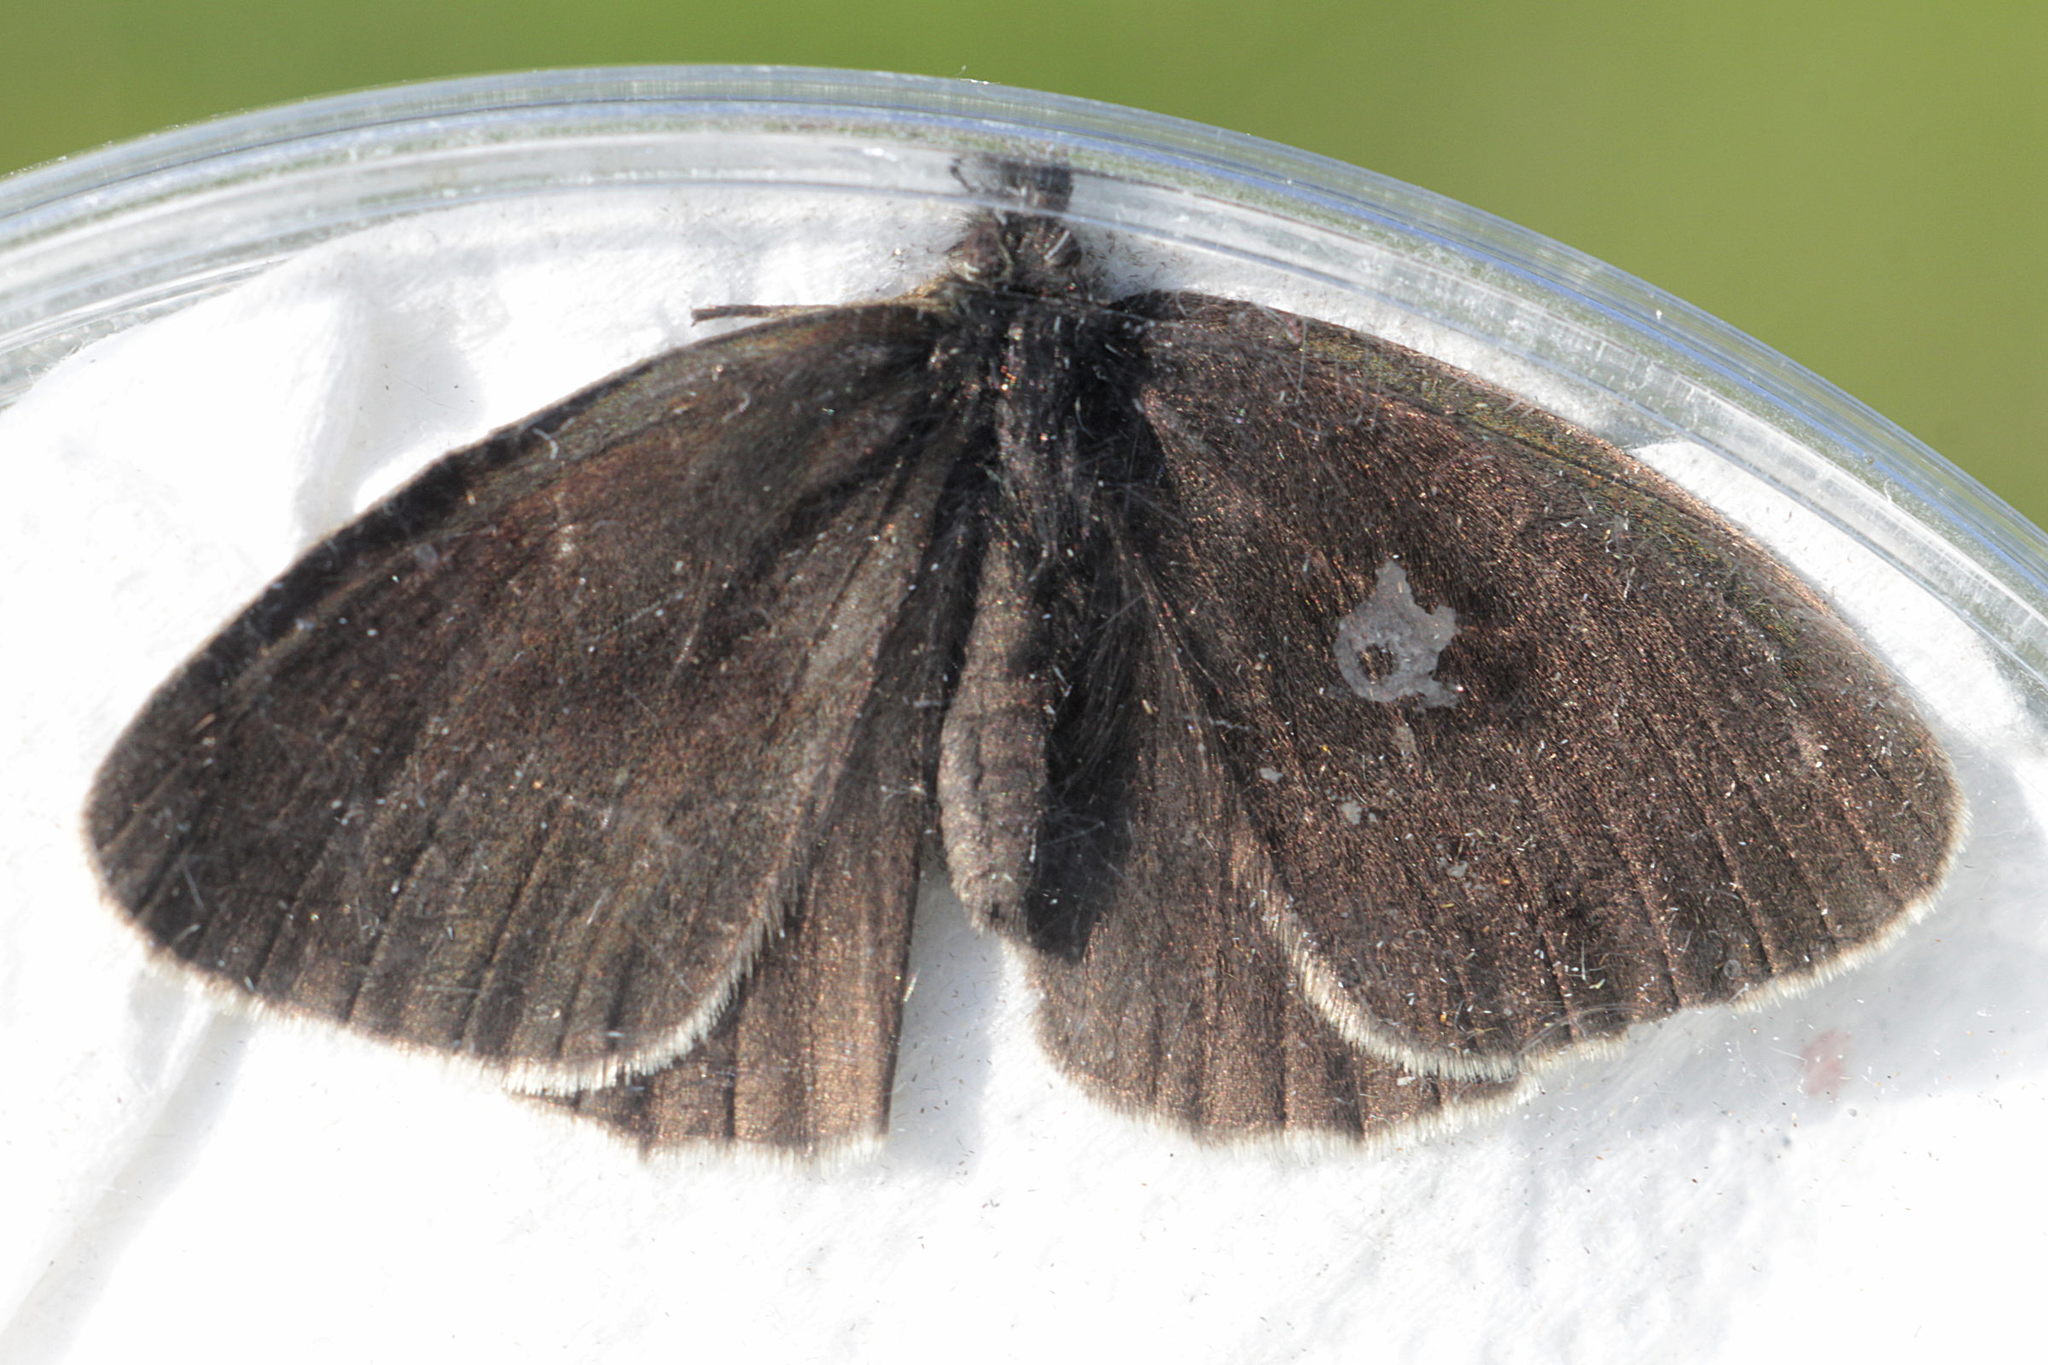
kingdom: Animalia
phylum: Arthropoda
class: Insecta
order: Lepidoptera
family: Nymphalidae
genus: Aphantopus
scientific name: Aphantopus hyperantus
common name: Ringlet
